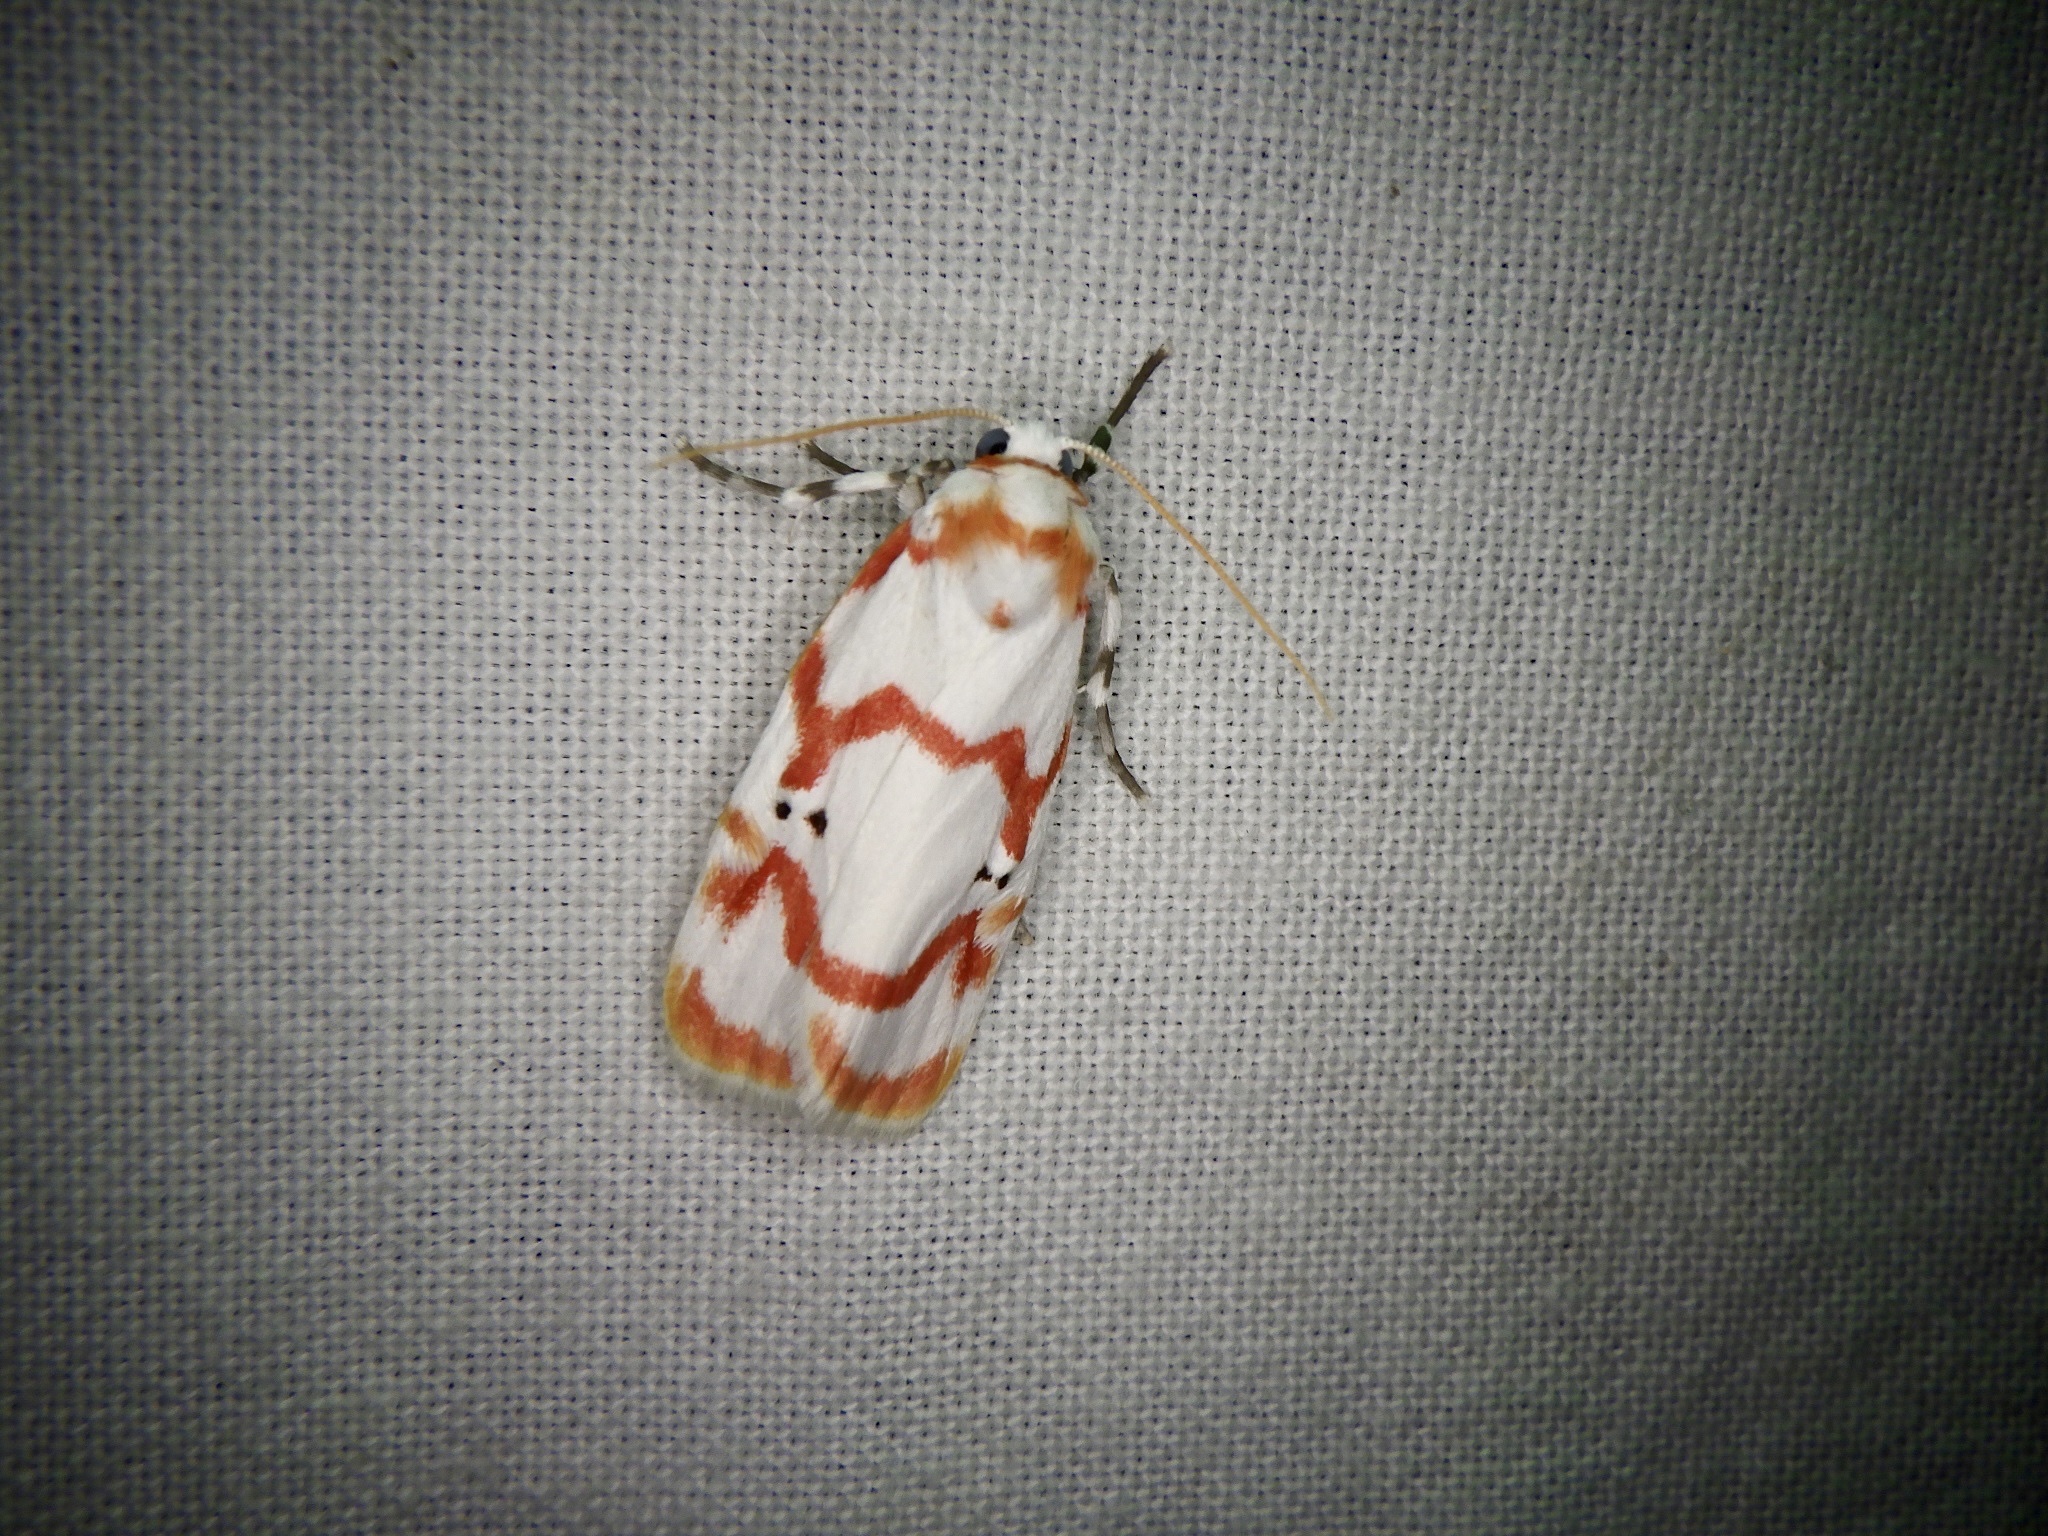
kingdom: Animalia
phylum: Arthropoda
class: Insecta
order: Lepidoptera
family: Erebidae
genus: Cyana
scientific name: Cyana hamata
